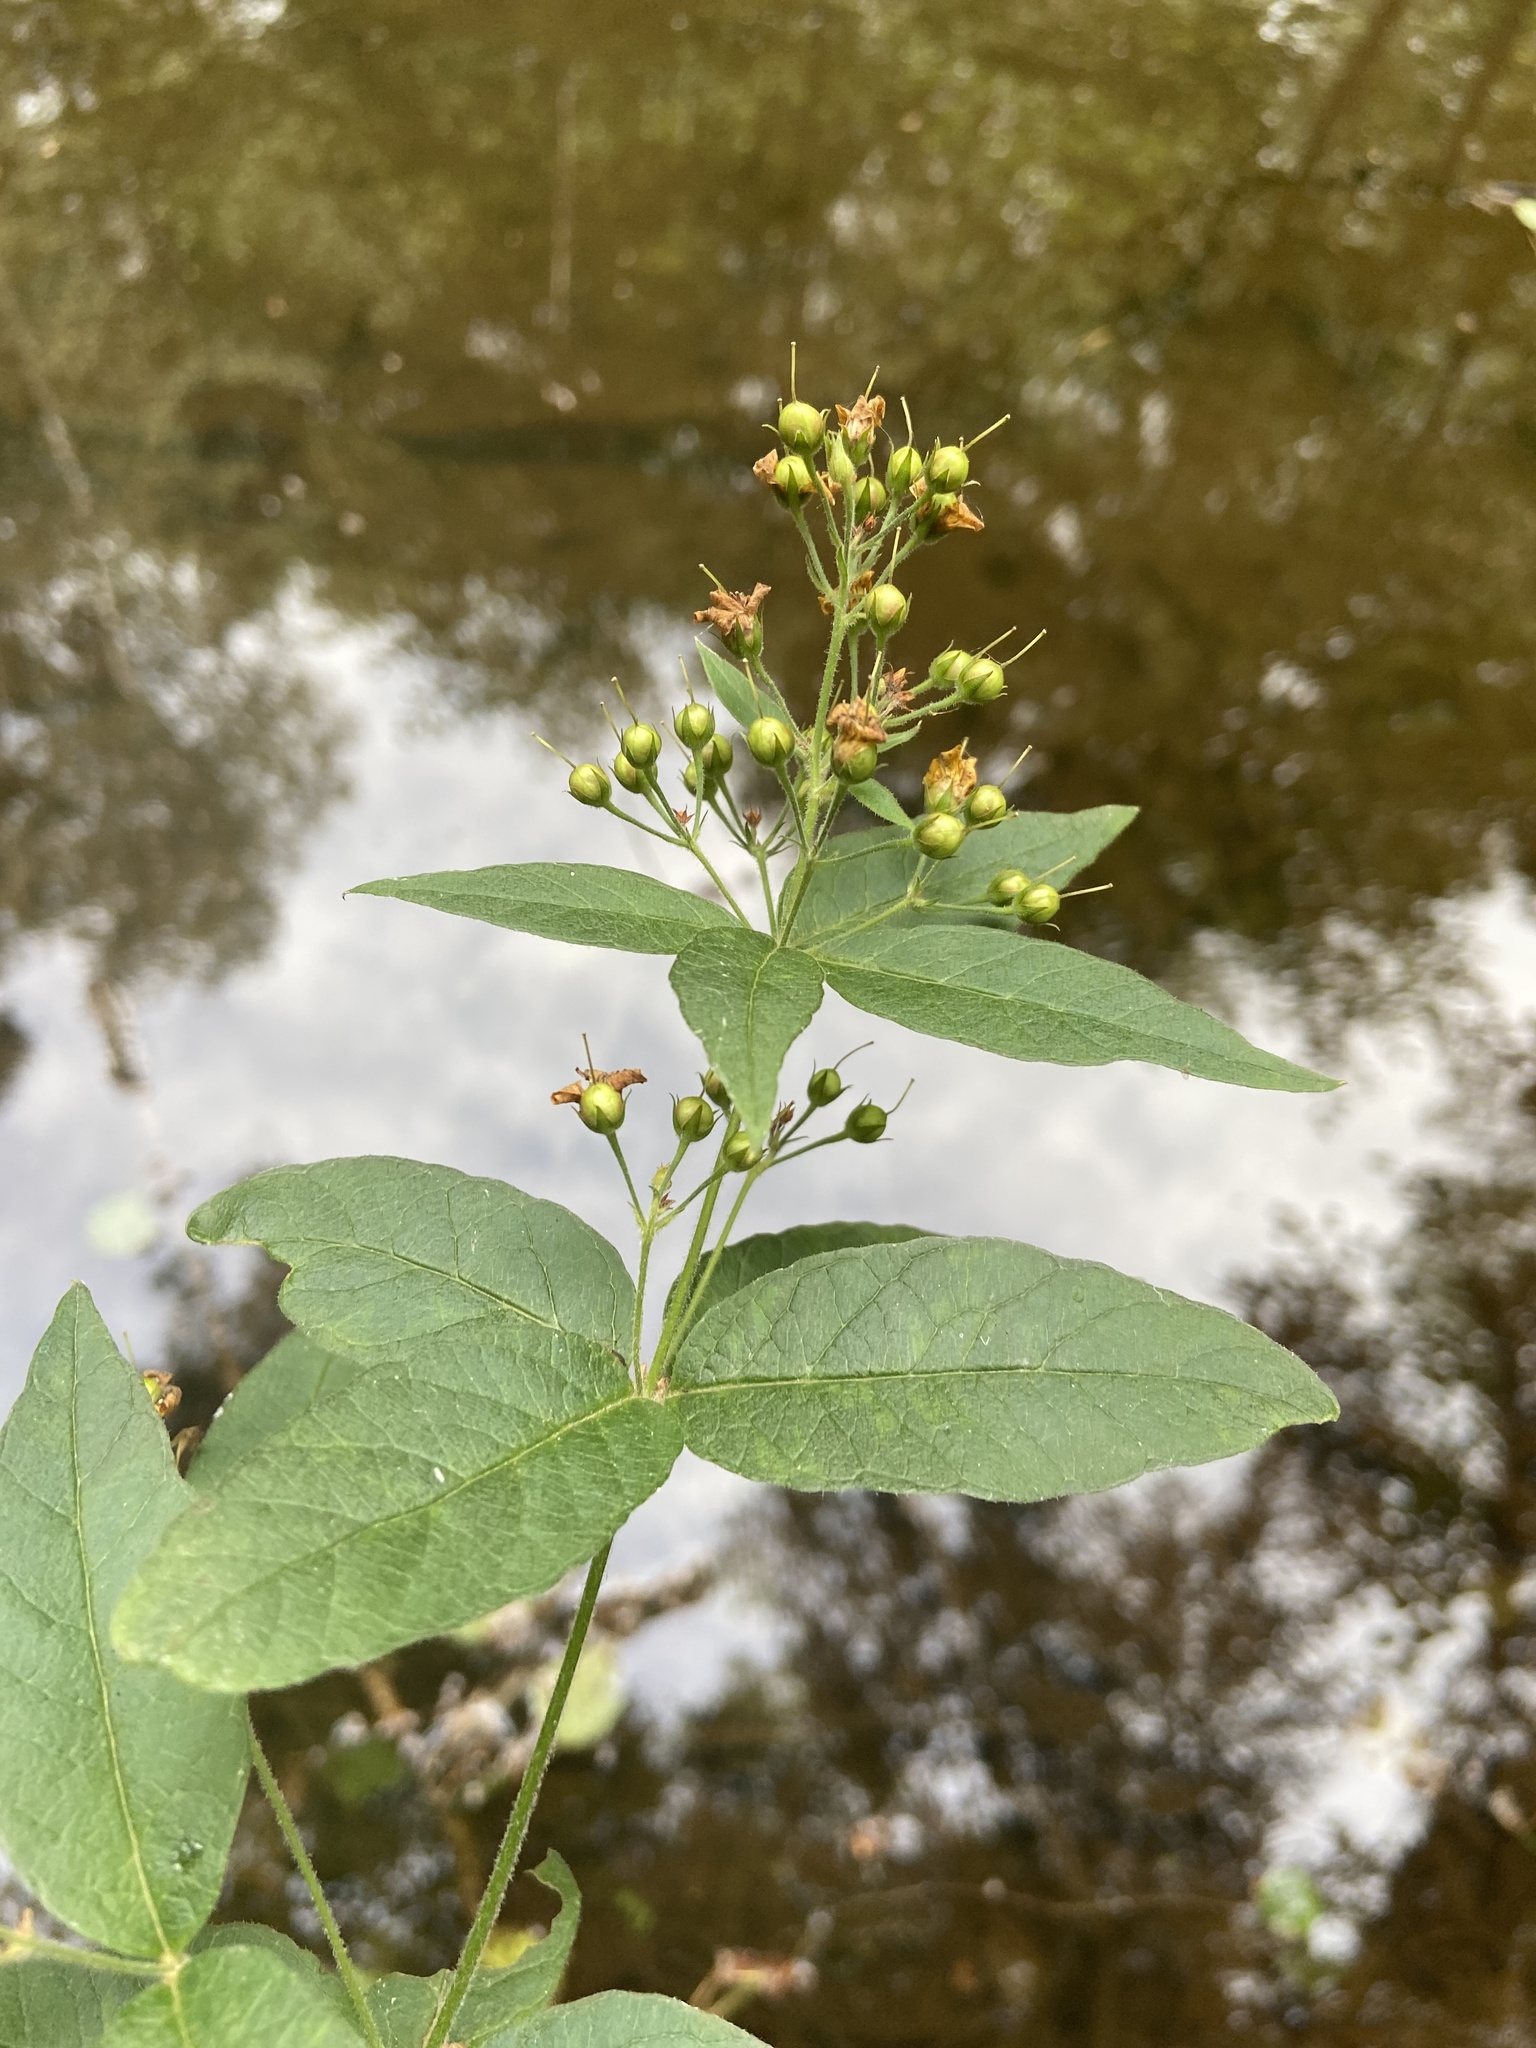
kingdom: Plantae
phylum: Tracheophyta
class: Magnoliopsida
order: Ericales
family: Primulaceae
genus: Lysimachia
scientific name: Lysimachia vulgaris
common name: Yellow loosestrife
